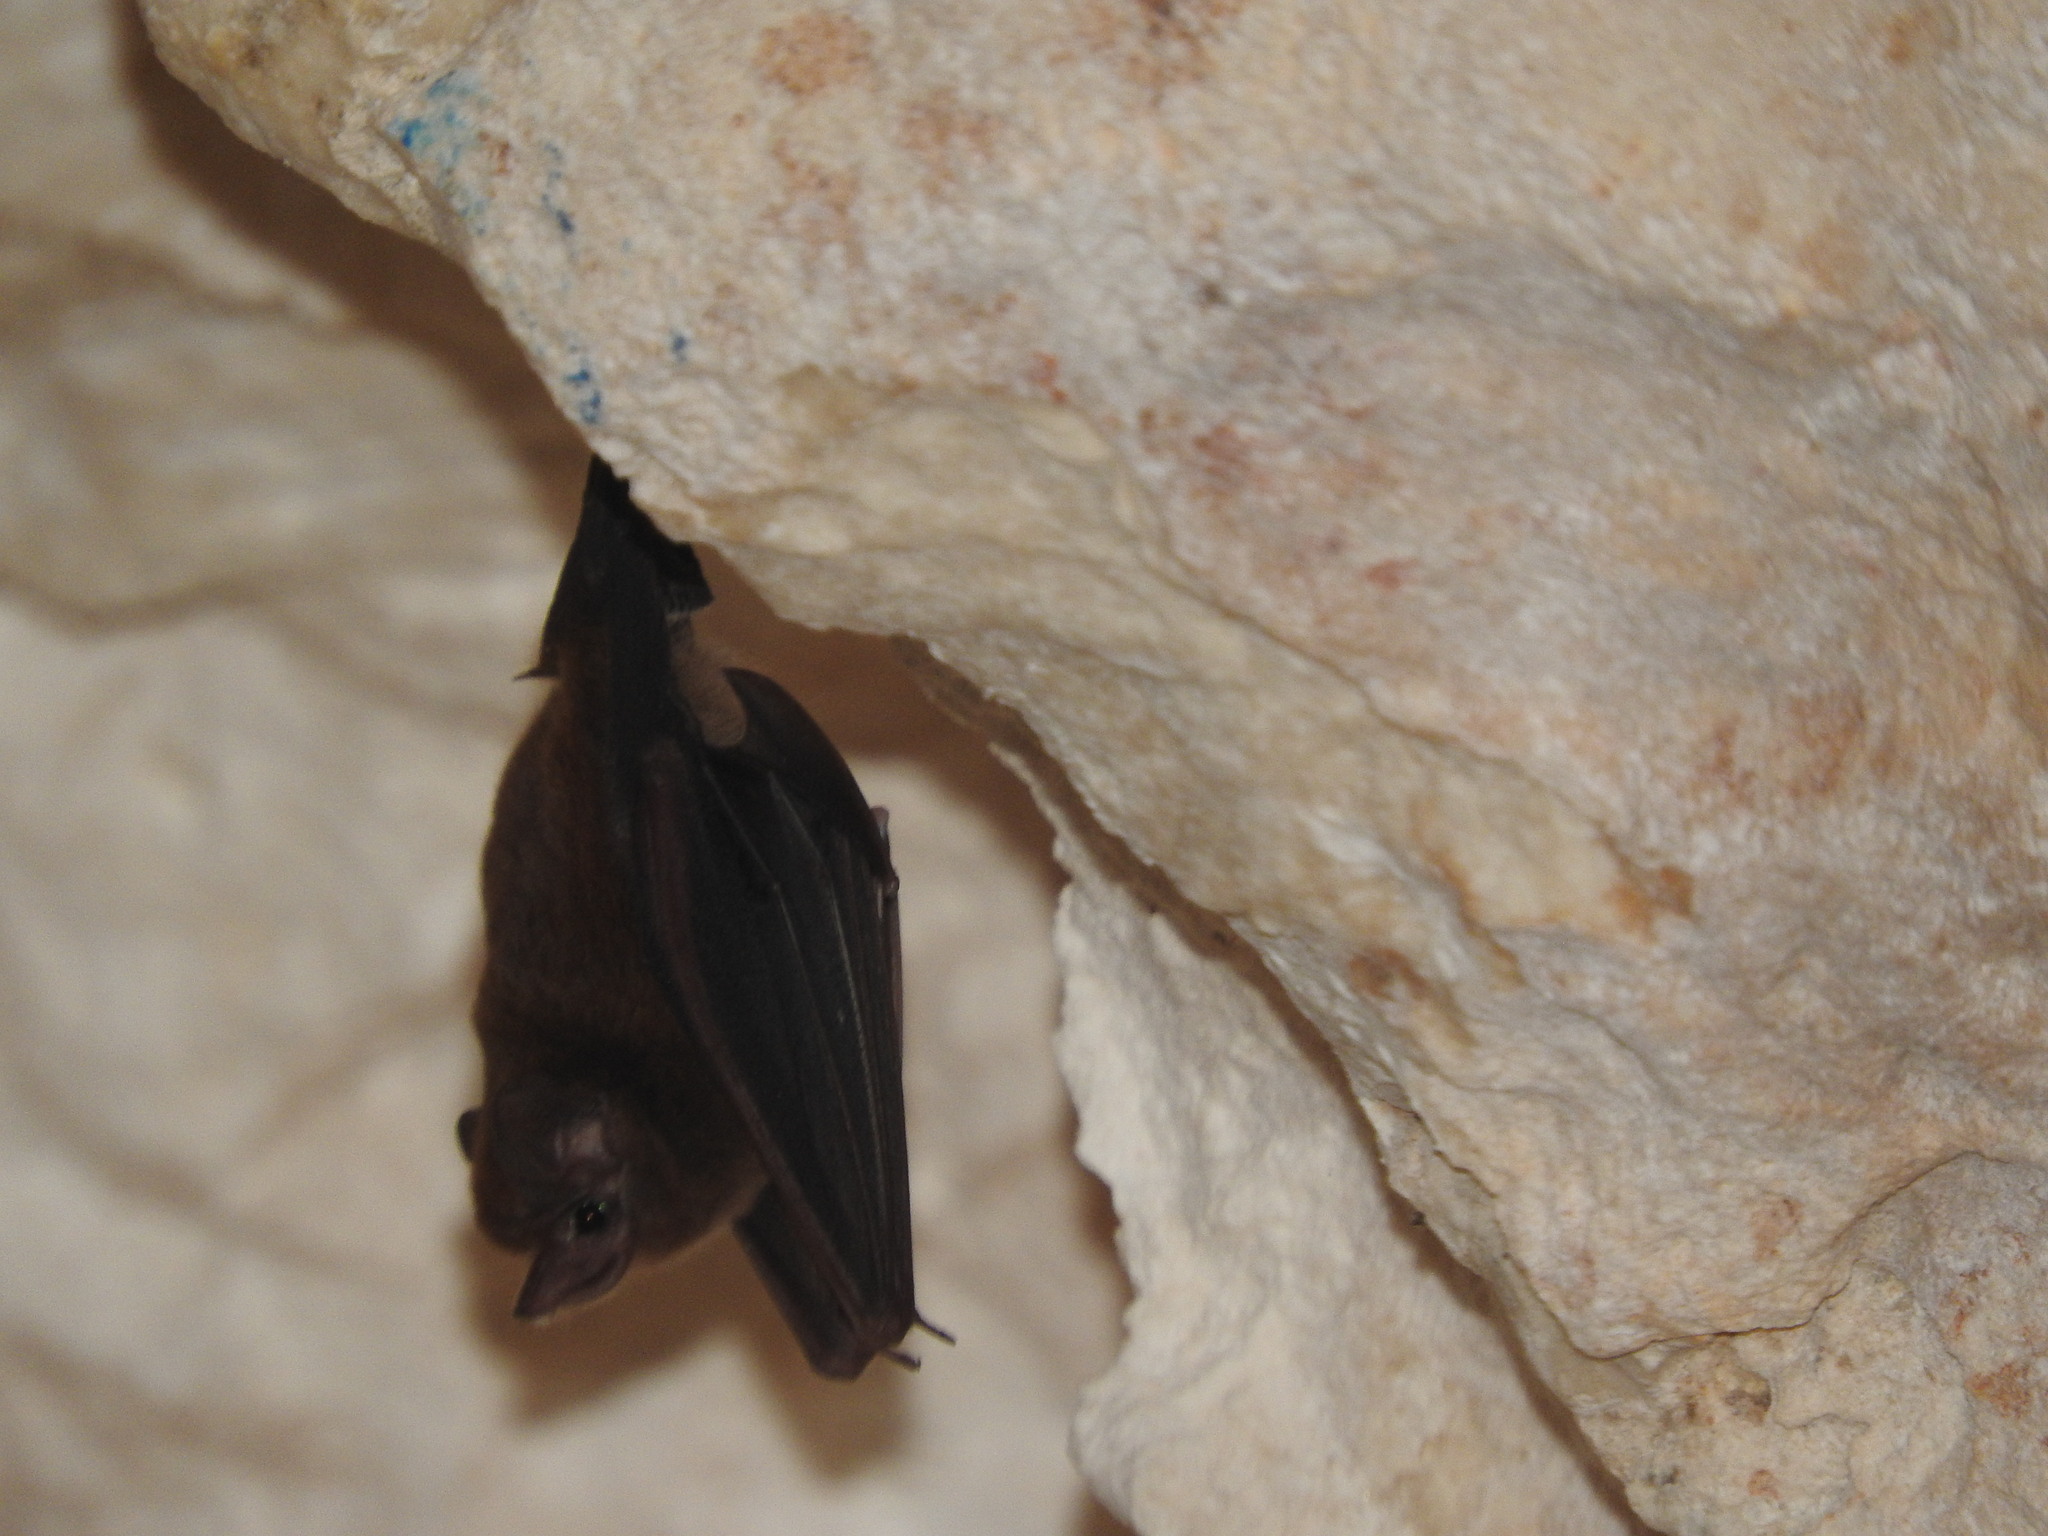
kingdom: Animalia
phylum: Chordata
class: Mammalia
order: Chiroptera
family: Emballonuridae
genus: Peropteryx
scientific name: Peropteryx macrotis
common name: Lesser dog-like bat
